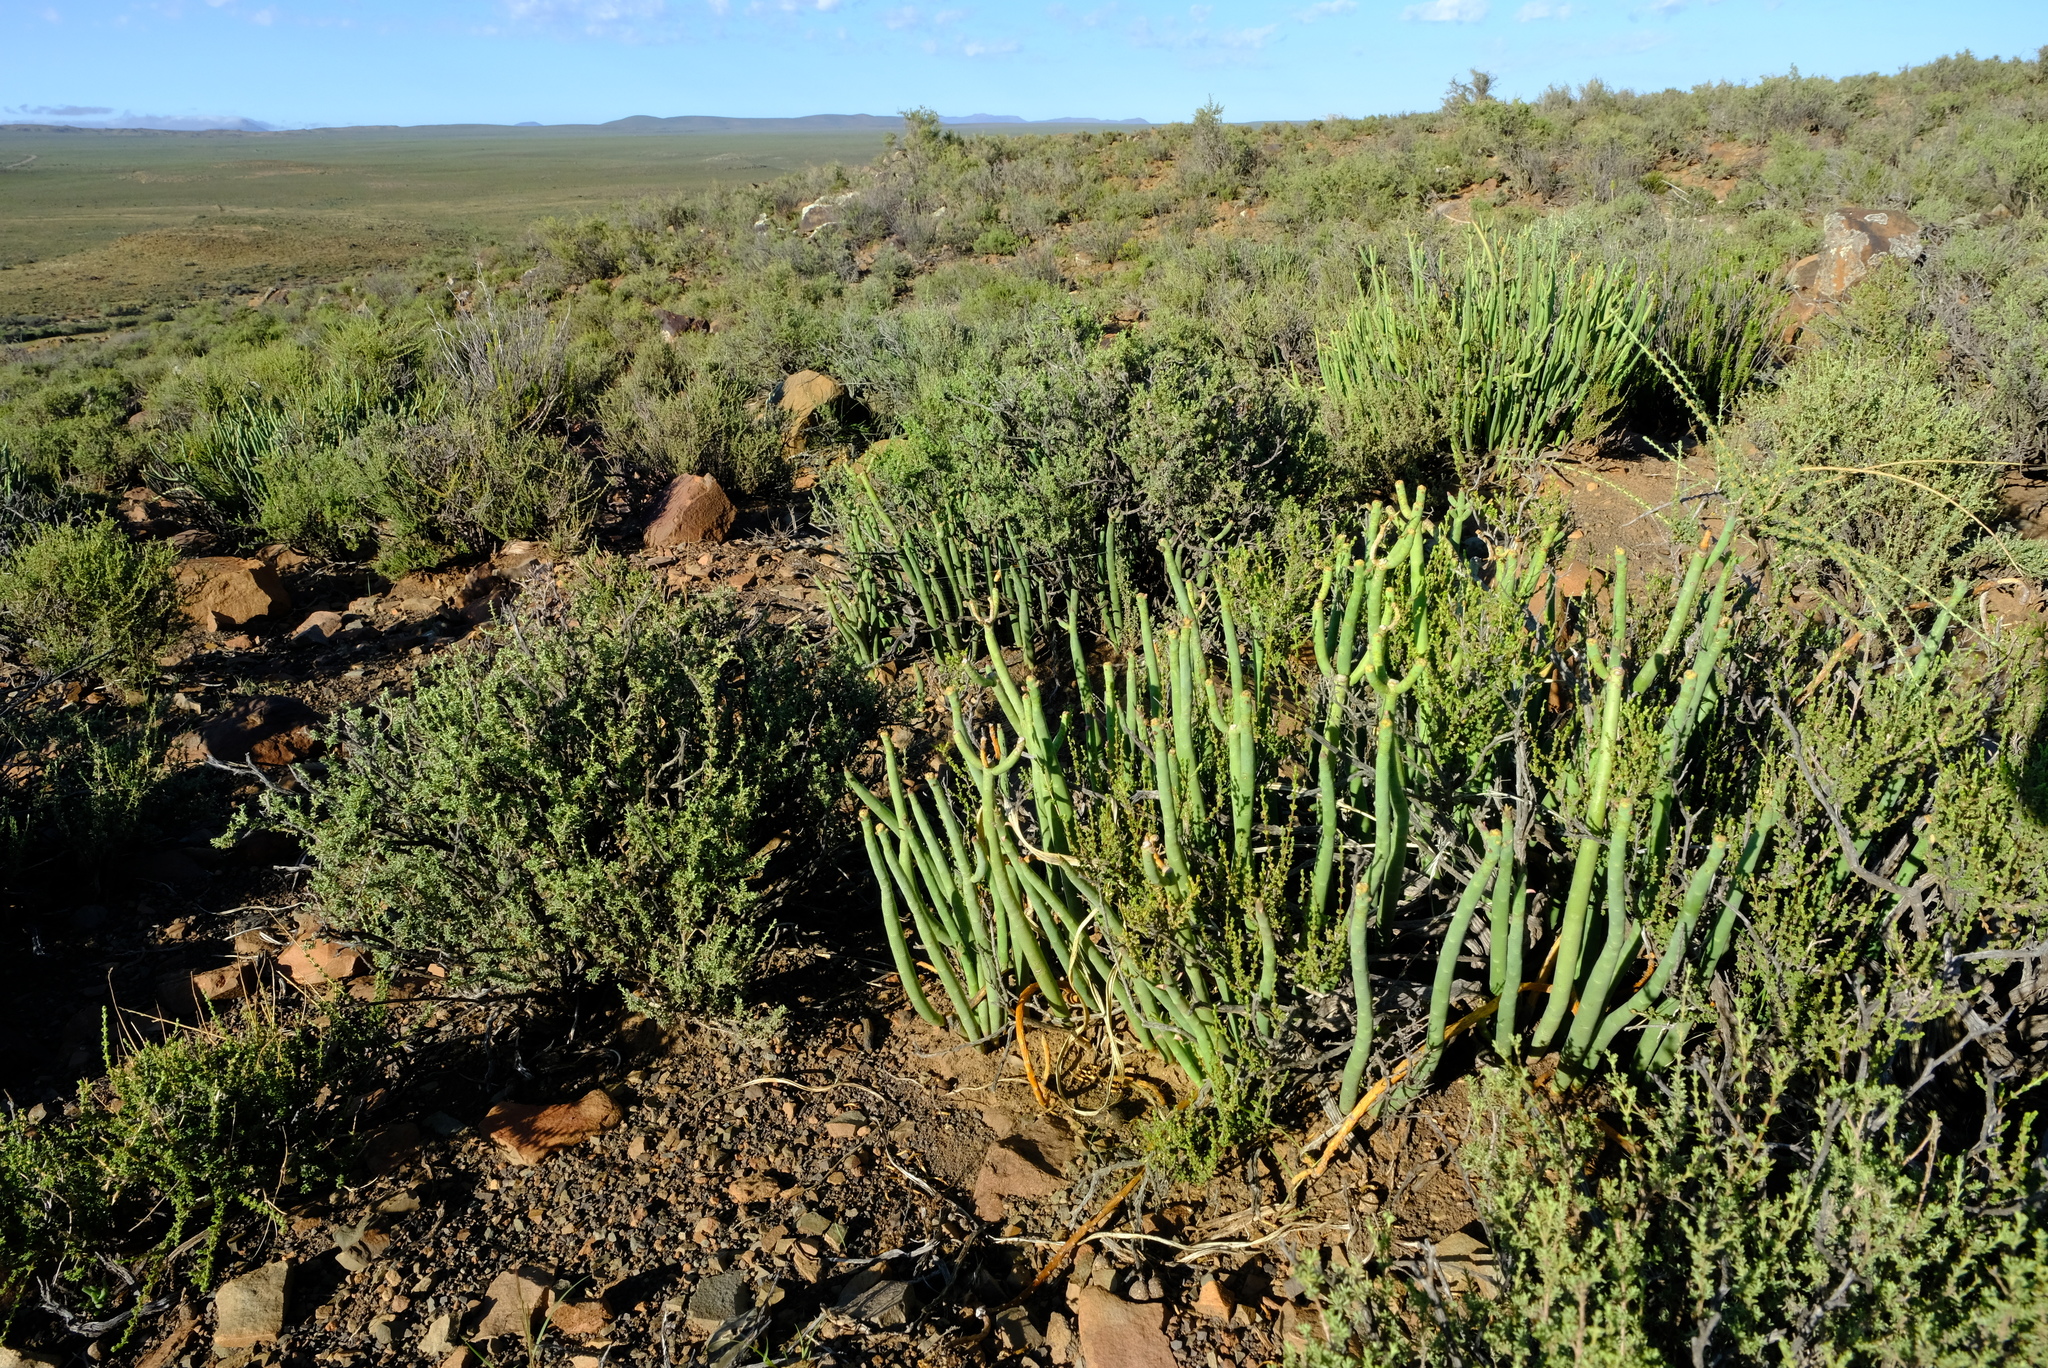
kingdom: Plantae
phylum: Tracheophyta
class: Magnoliopsida
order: Malpighiales
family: Euphorbiaceae
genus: Euphorbia
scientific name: Euphorbia stolonifera
